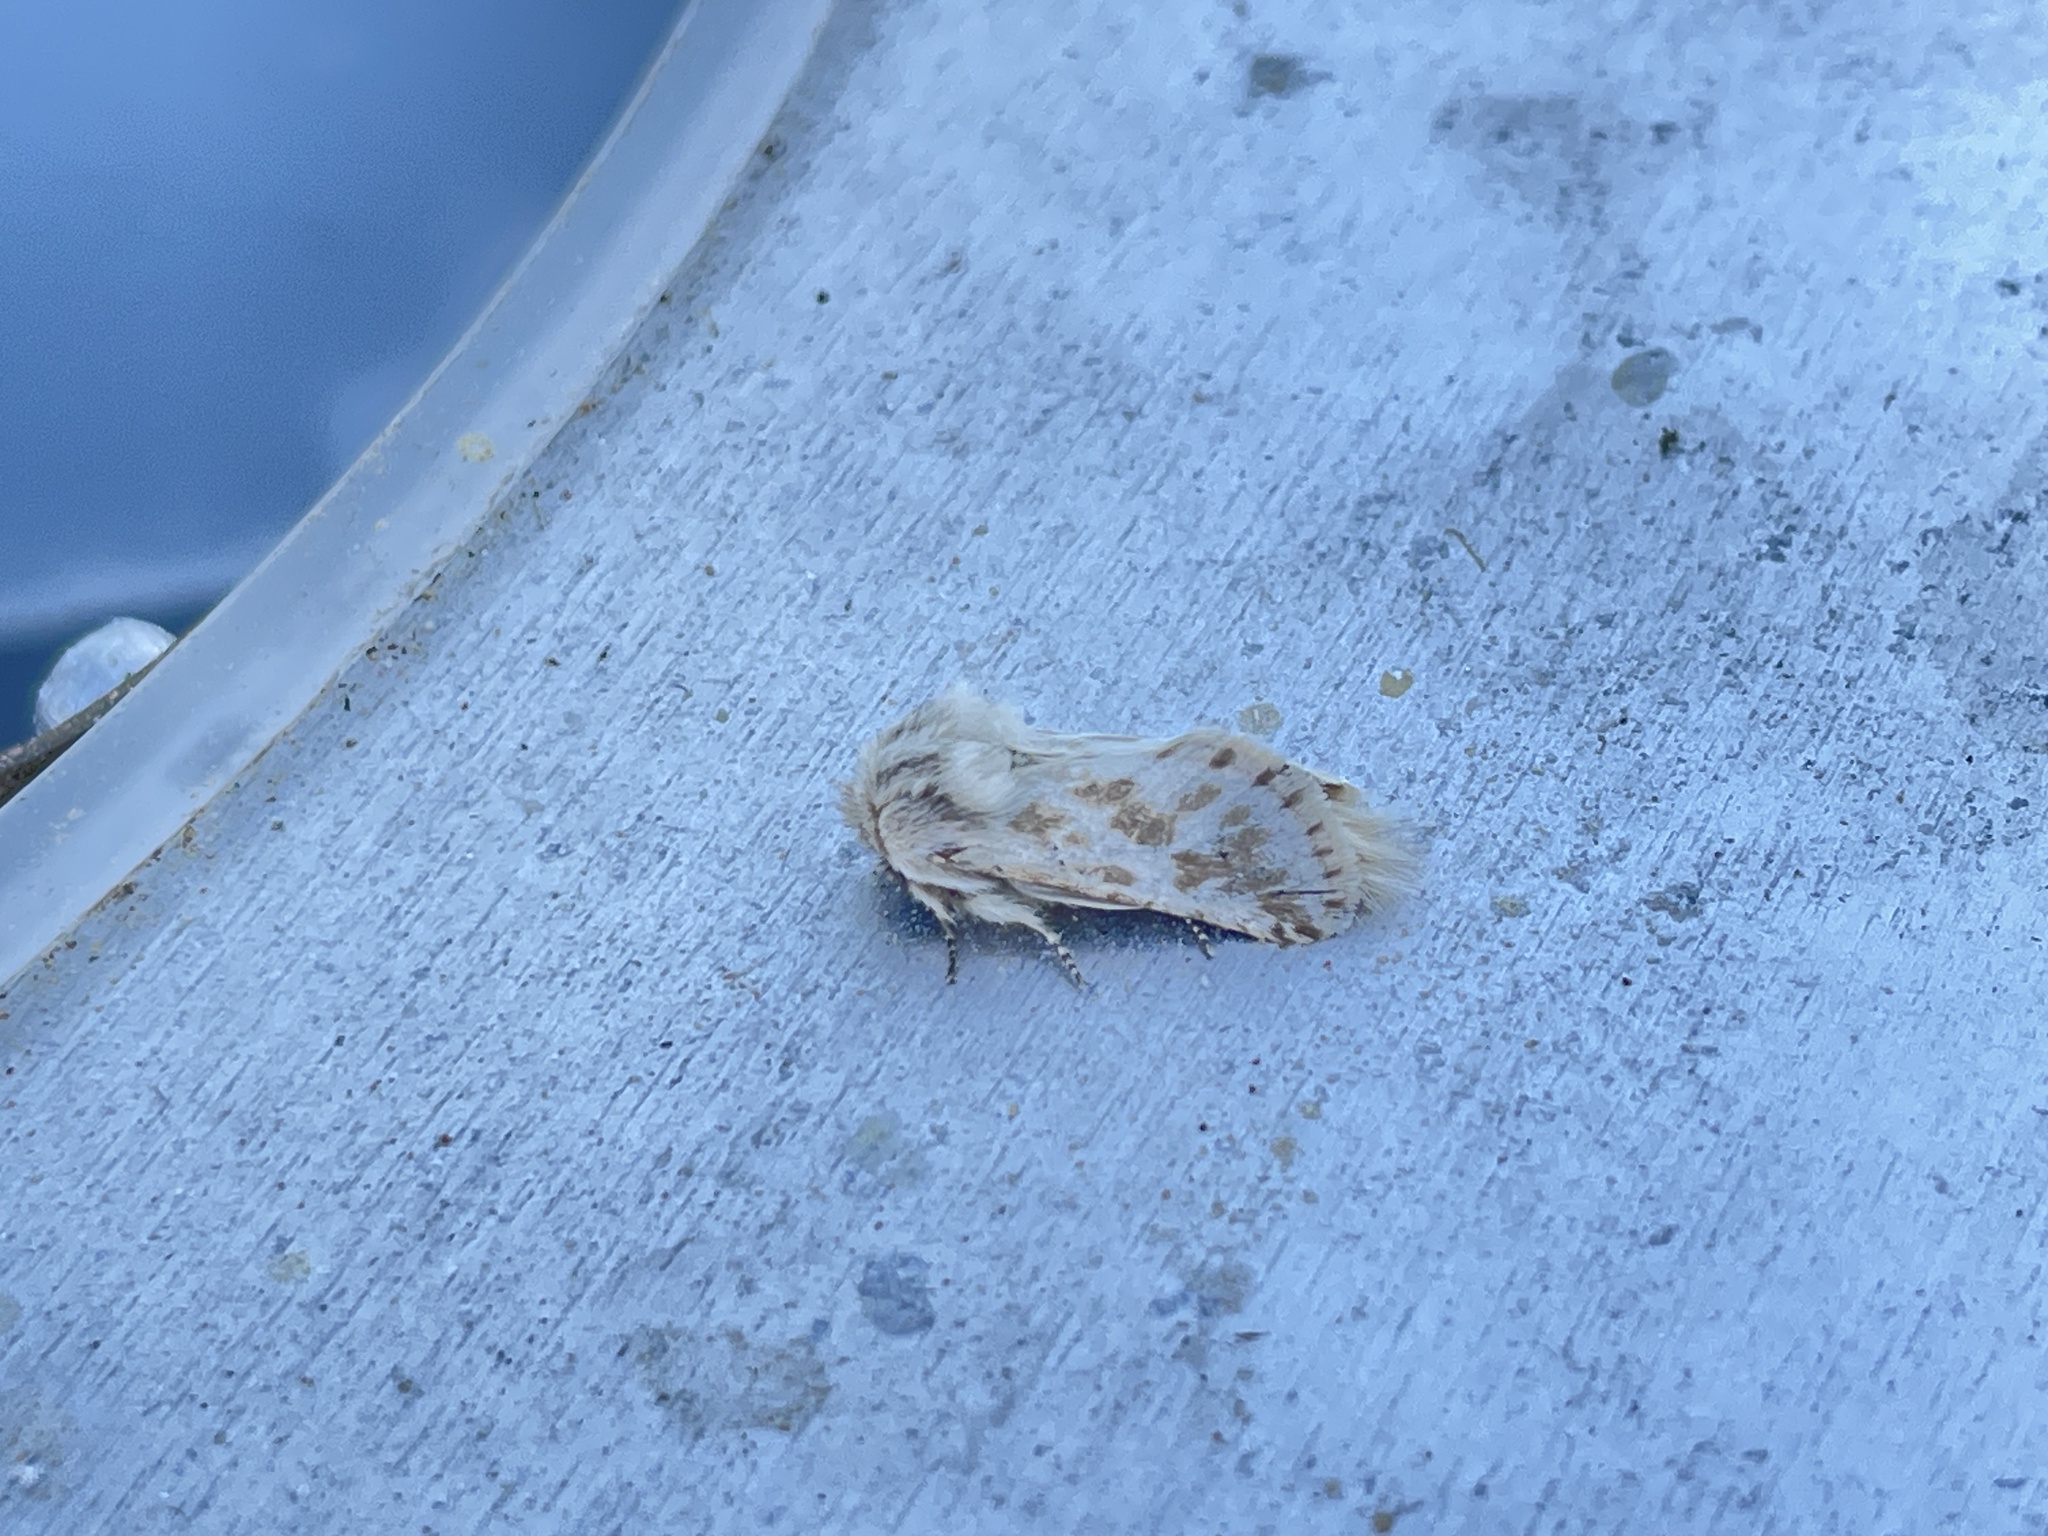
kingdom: Animalia
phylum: Arthropoda
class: Insecta
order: Lepidoptera
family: Cossidae
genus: Dyspessa
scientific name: Dyspessa ulula
